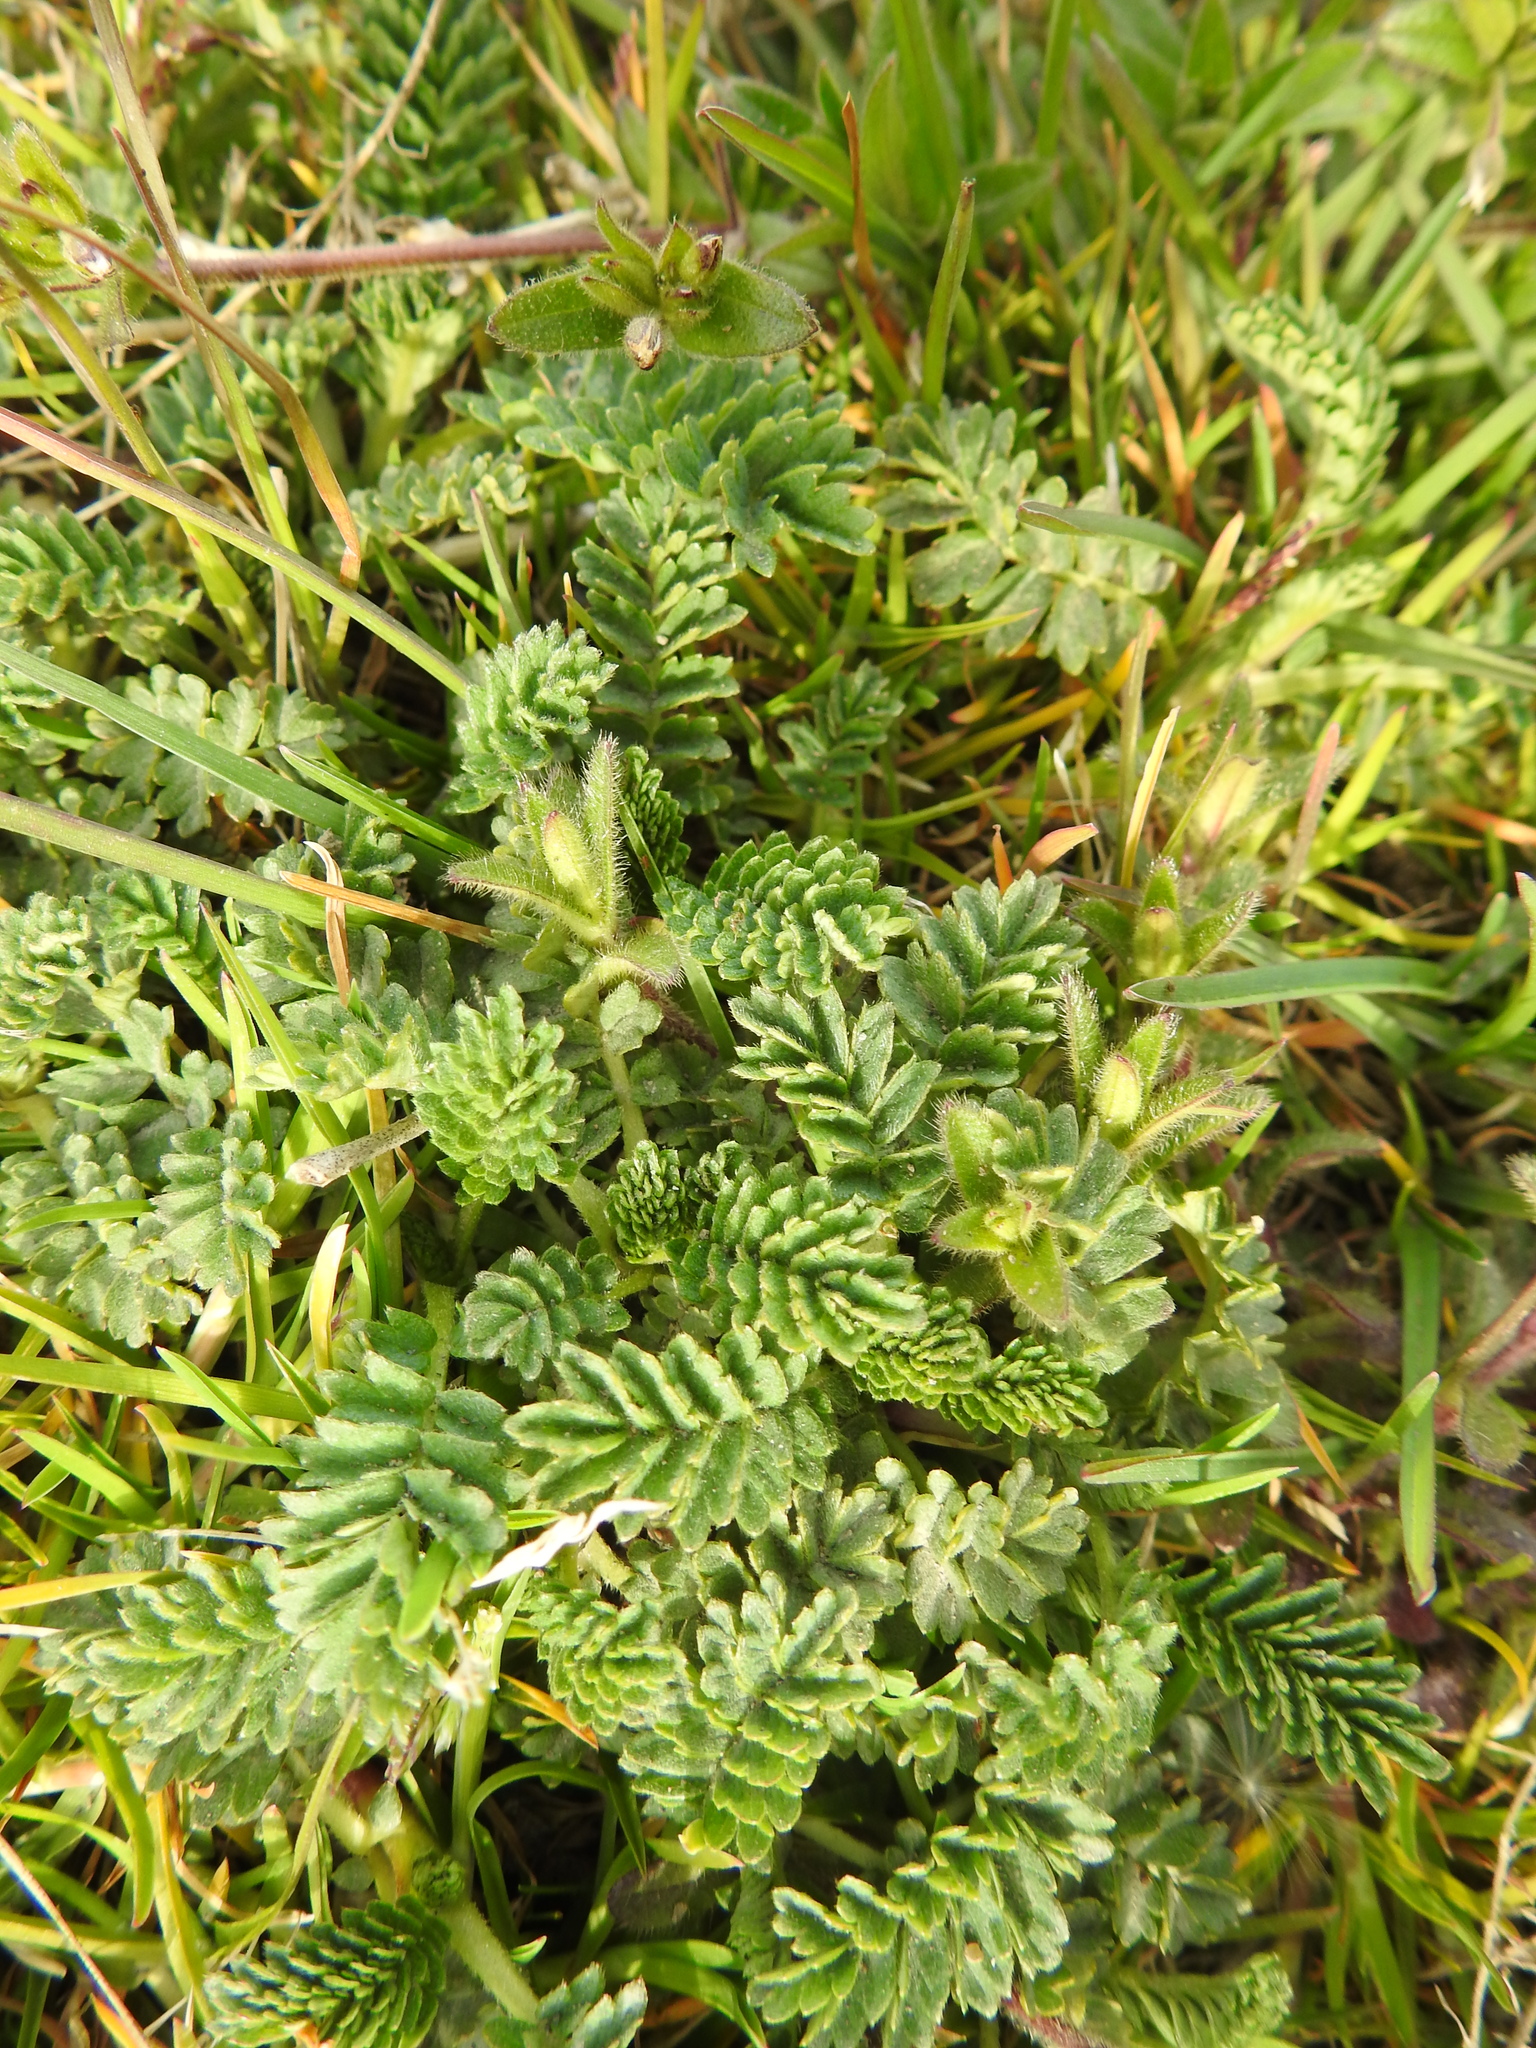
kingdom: Plantae
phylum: Tracheophyta
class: Magnoliopsida
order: Rosales
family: Rosaceae
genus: Acaena
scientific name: Acaena magellanica
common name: New zealand burr
